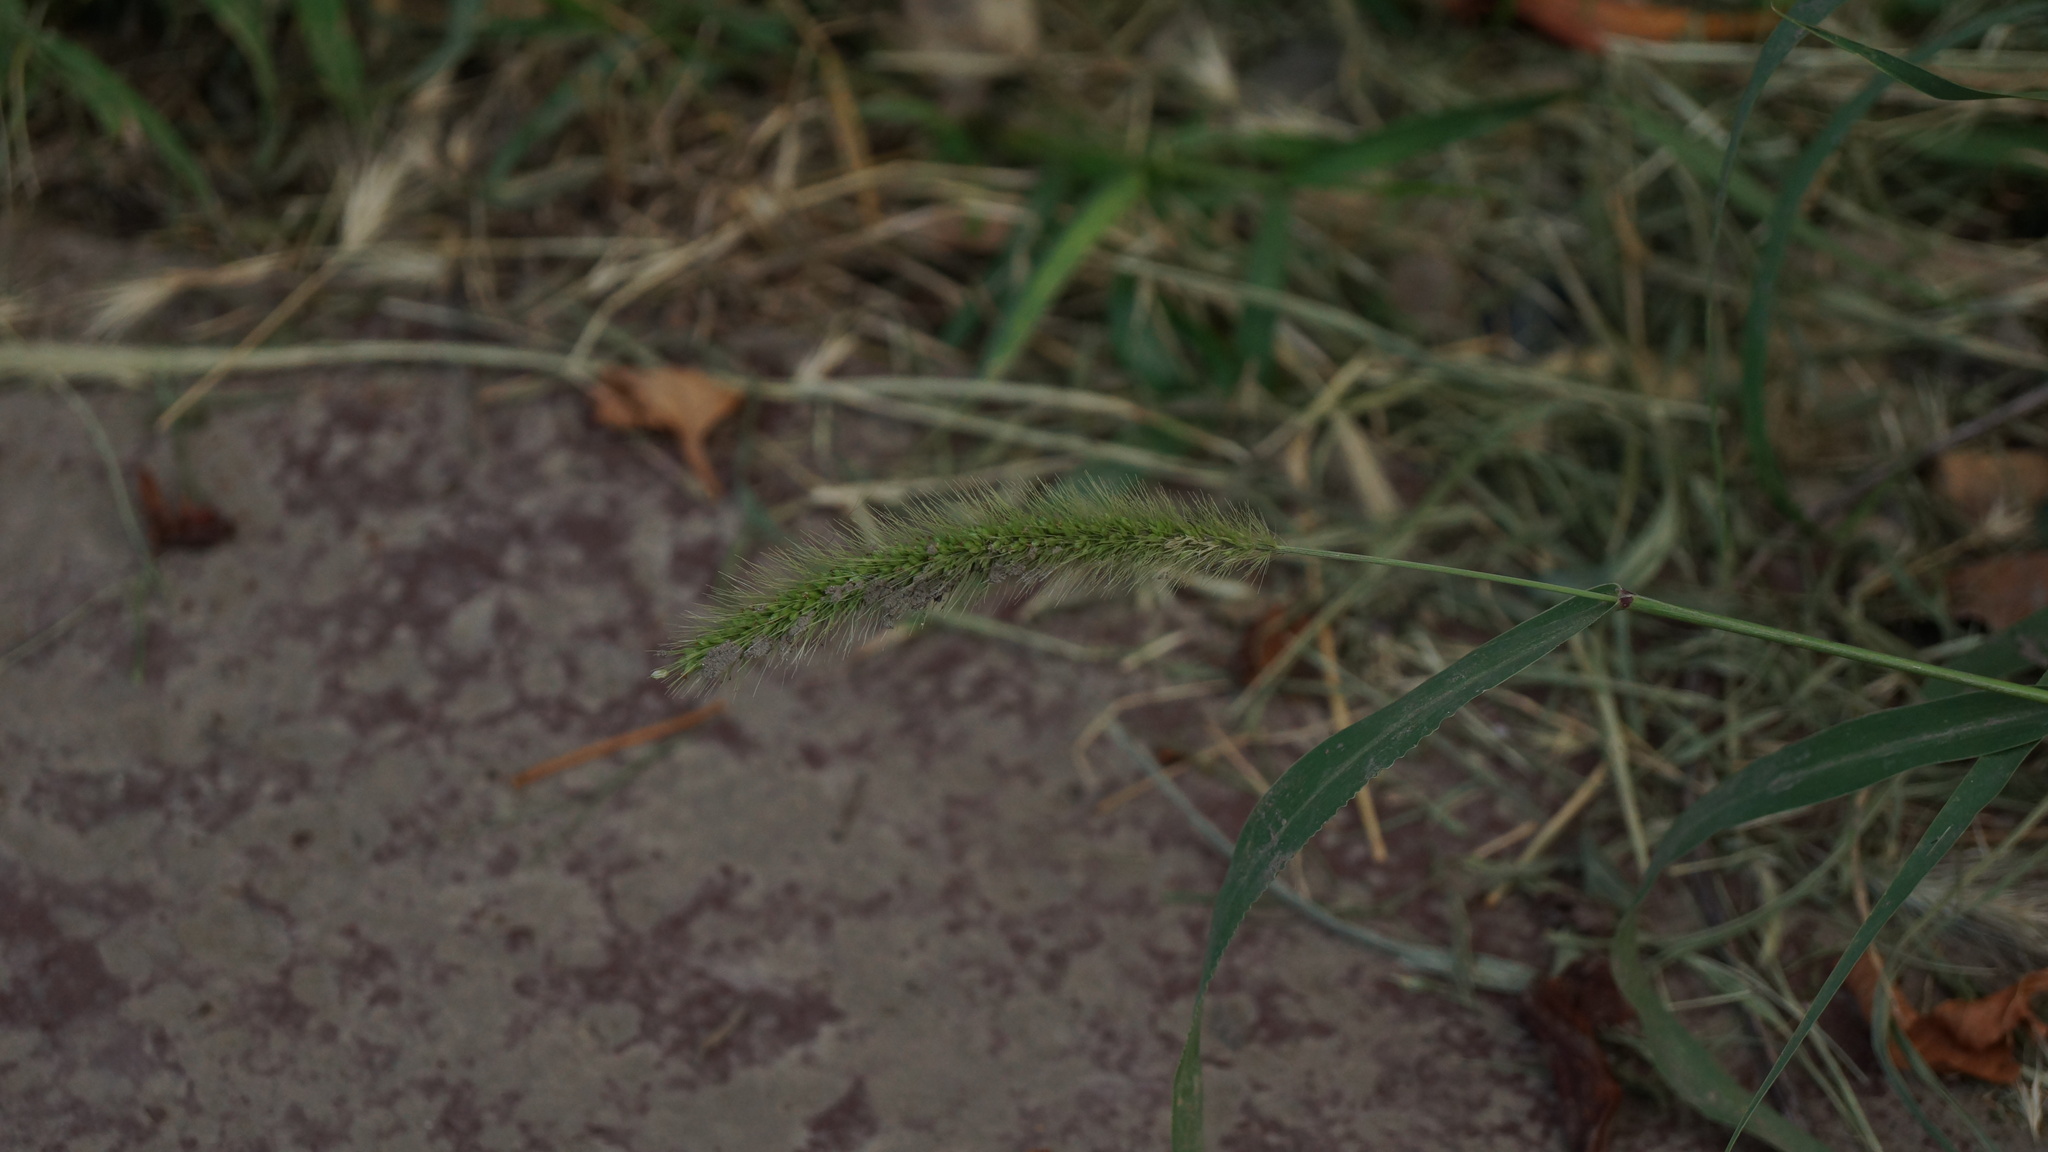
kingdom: Plantae
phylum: Tracheophyta
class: Liliopsida
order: Poales
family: Poaceae
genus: Setaria
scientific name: Setaria viridis
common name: Green bristlegrass
